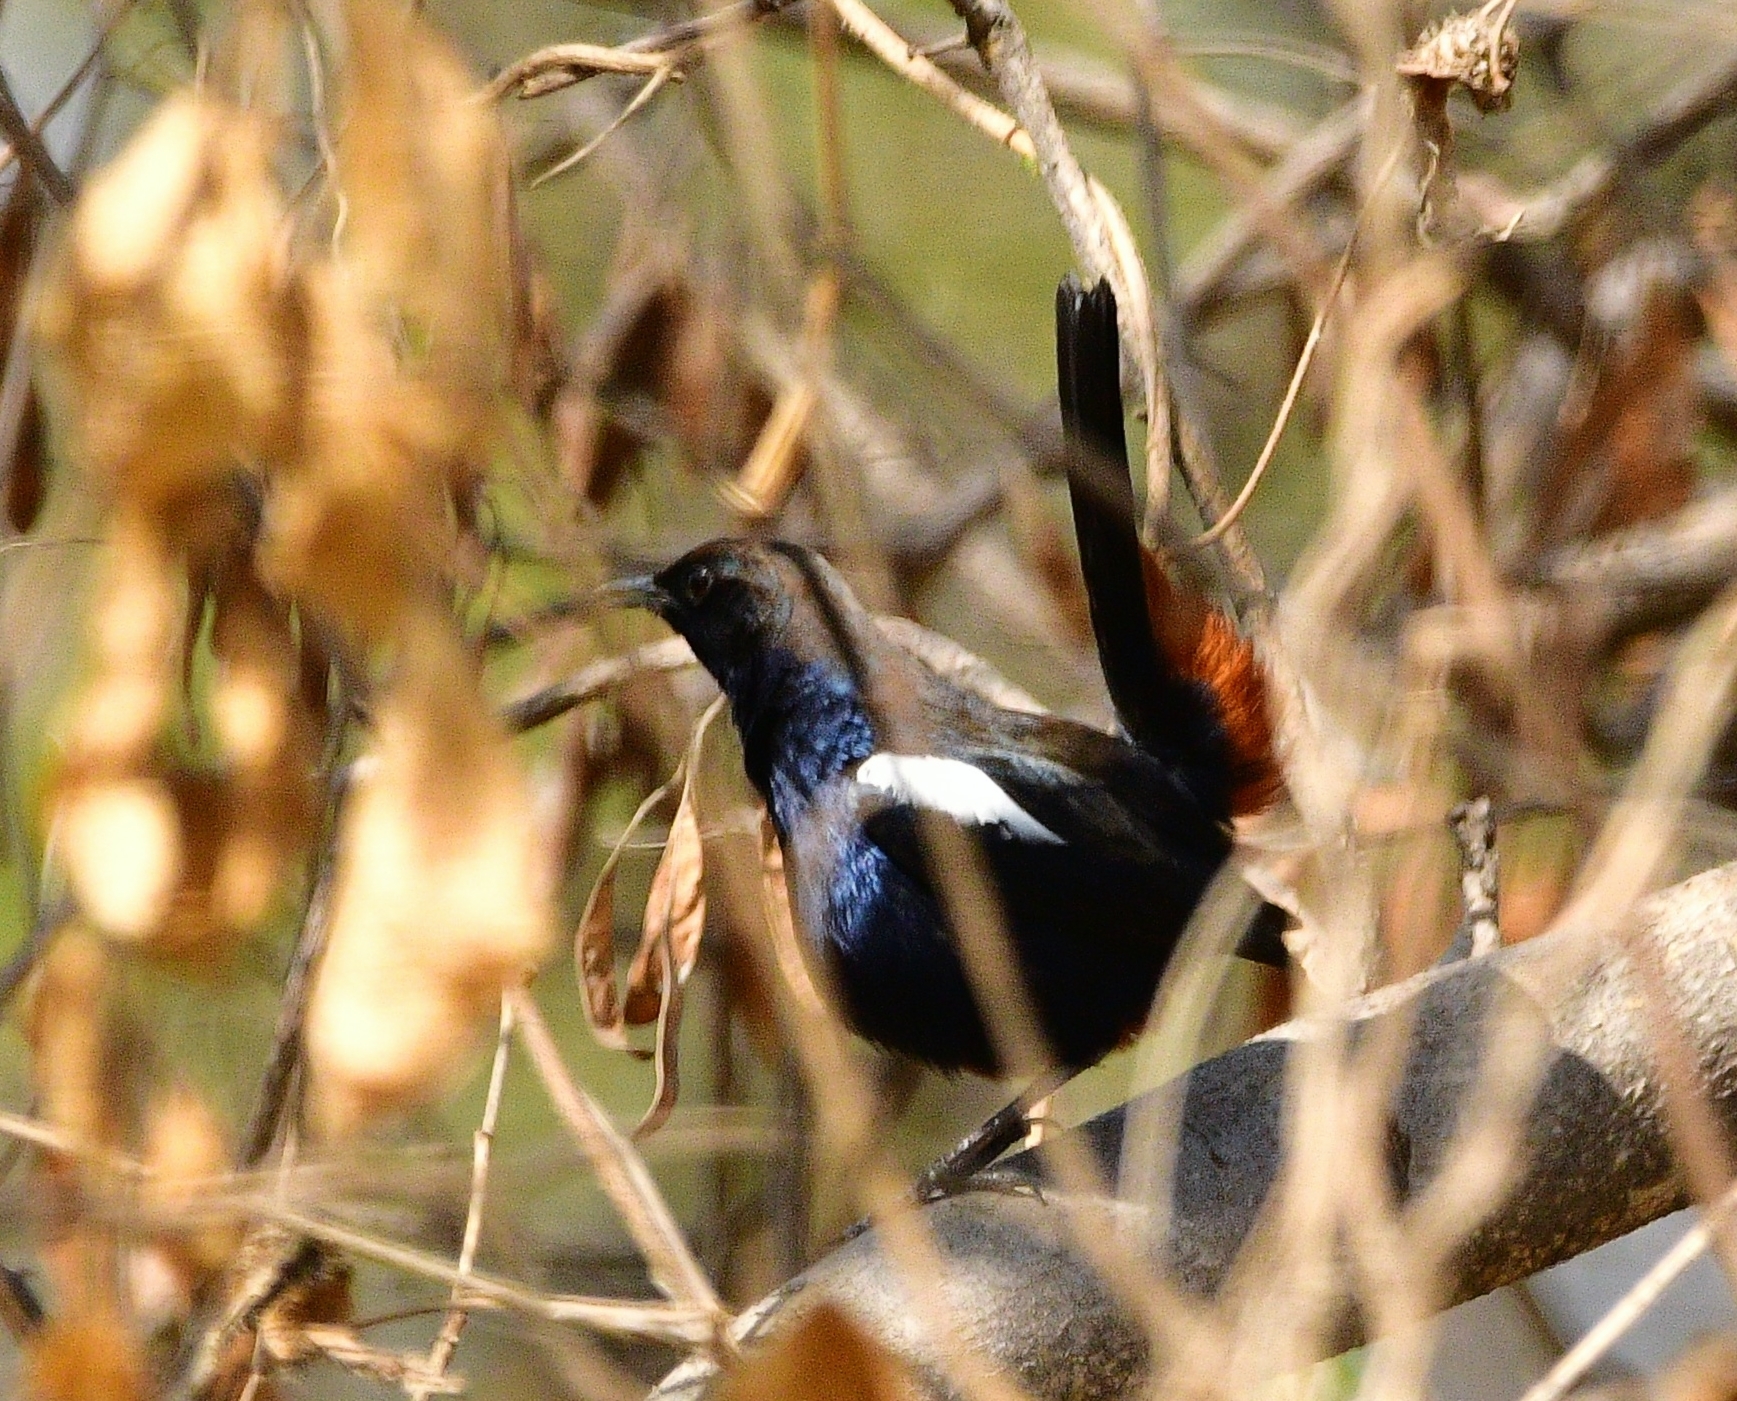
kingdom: Animalia
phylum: Chordata
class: Aves
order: Passeriformes
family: Muscicapidae
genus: Saxicoloides
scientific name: Saxicoloides fulicatus
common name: Indian robin
